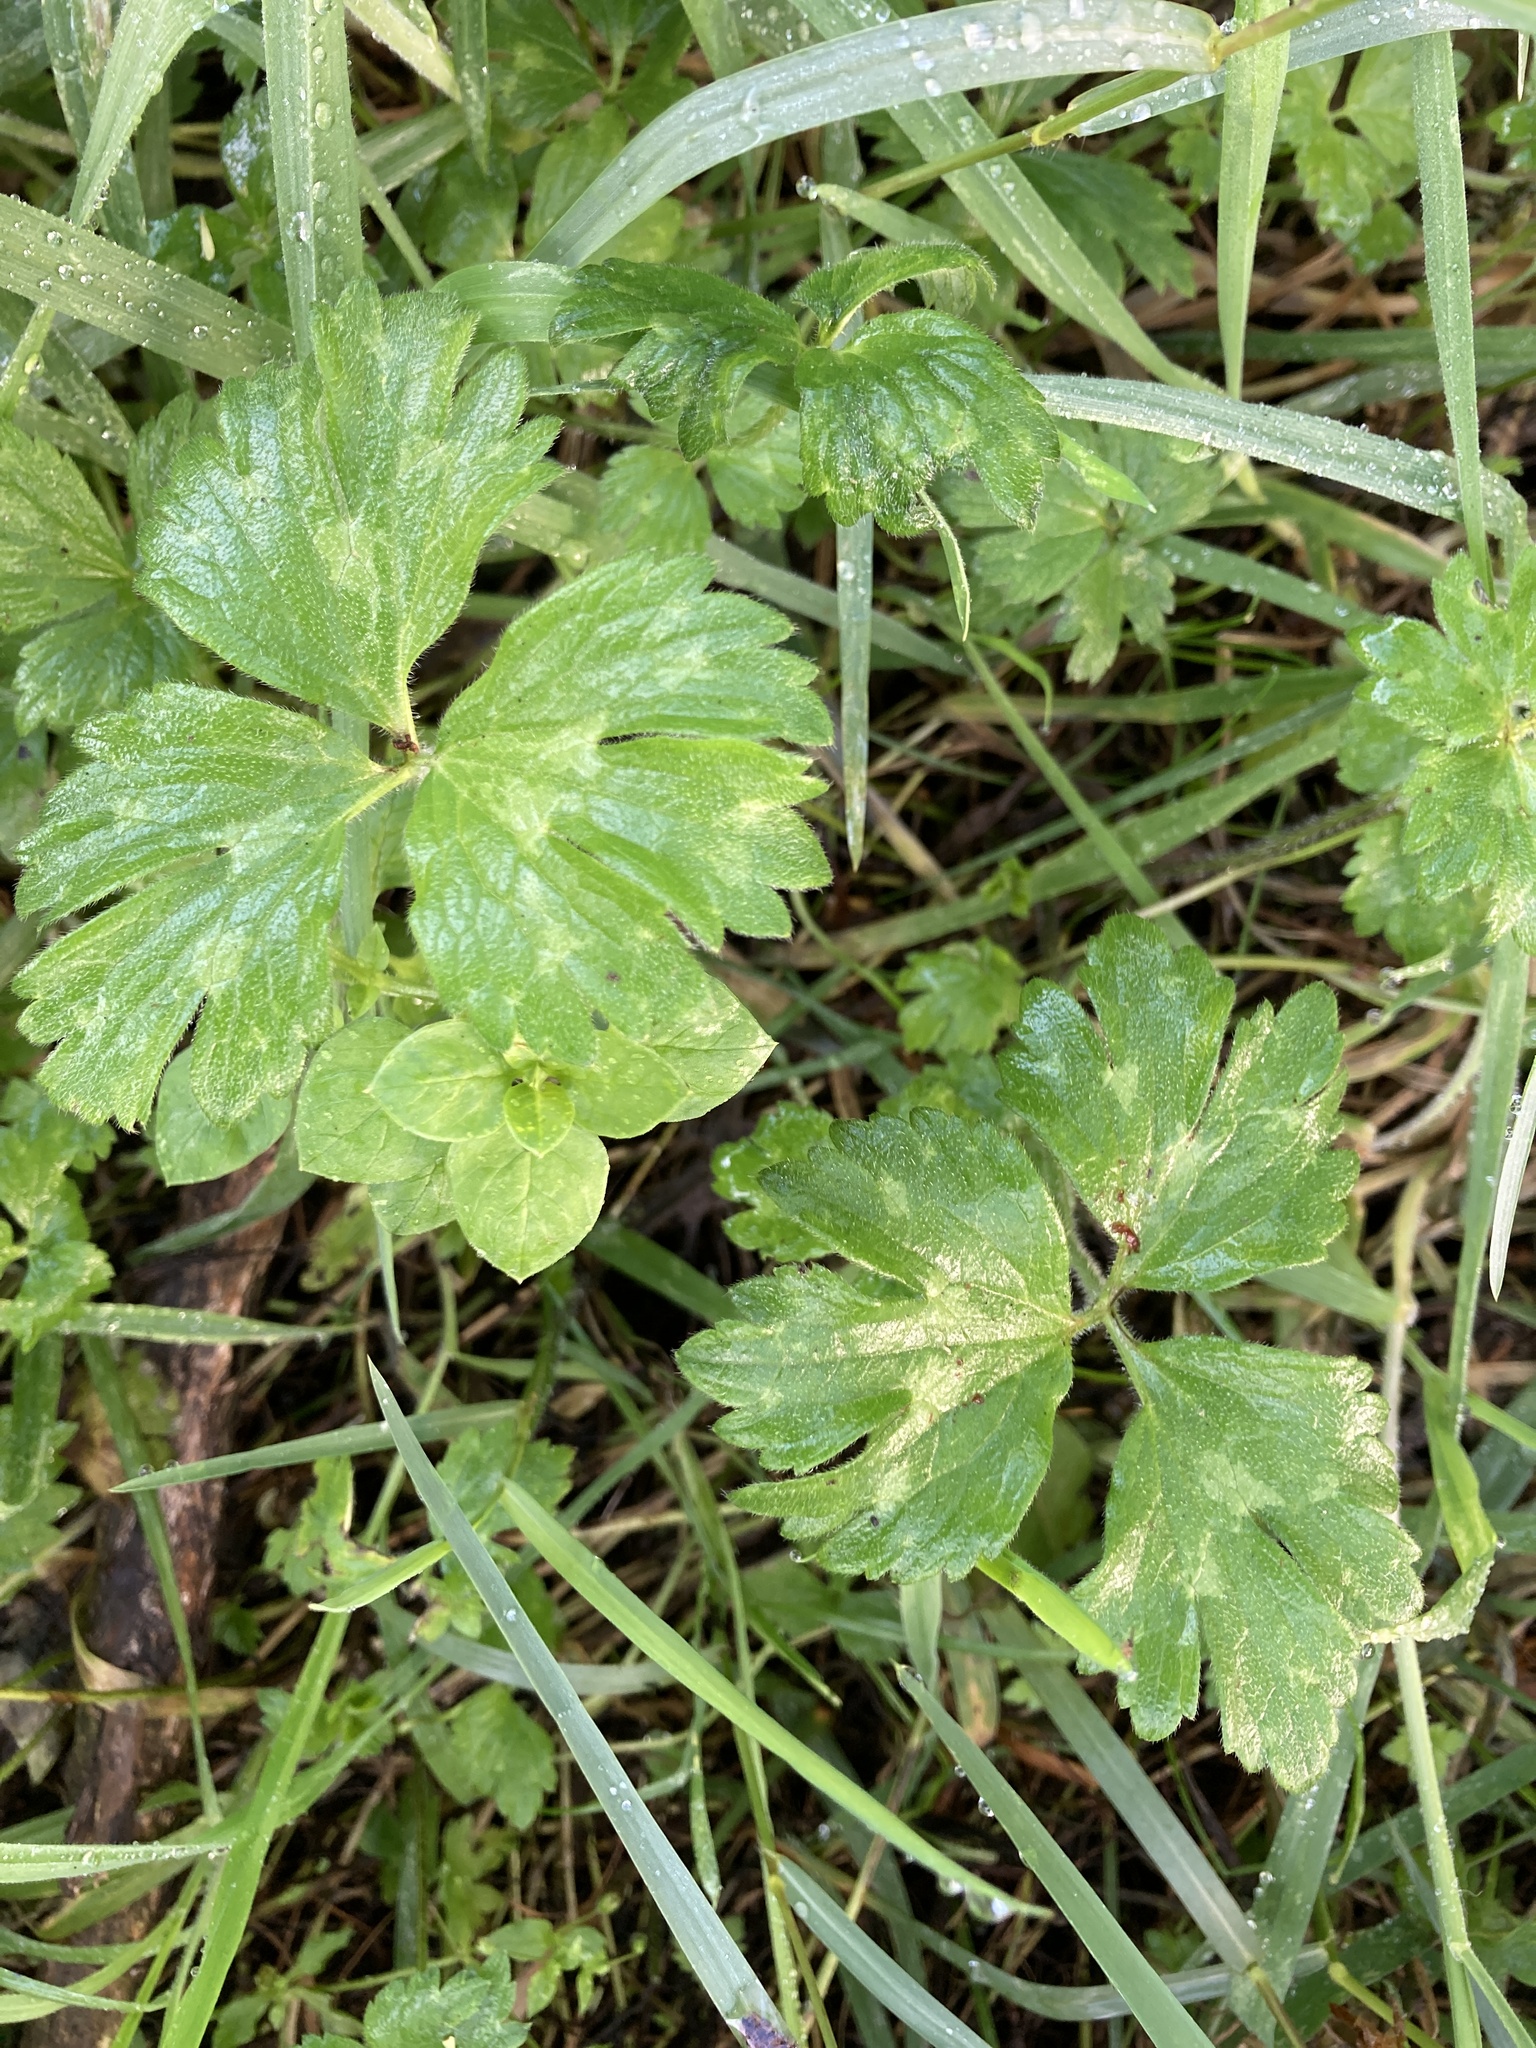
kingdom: Plantae
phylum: Tracheophyta
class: Magnoliopsida
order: Ranunculales
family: Ranunculaceae
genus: Ranunculus
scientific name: Ranunculus repens
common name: Creeping buttercup
